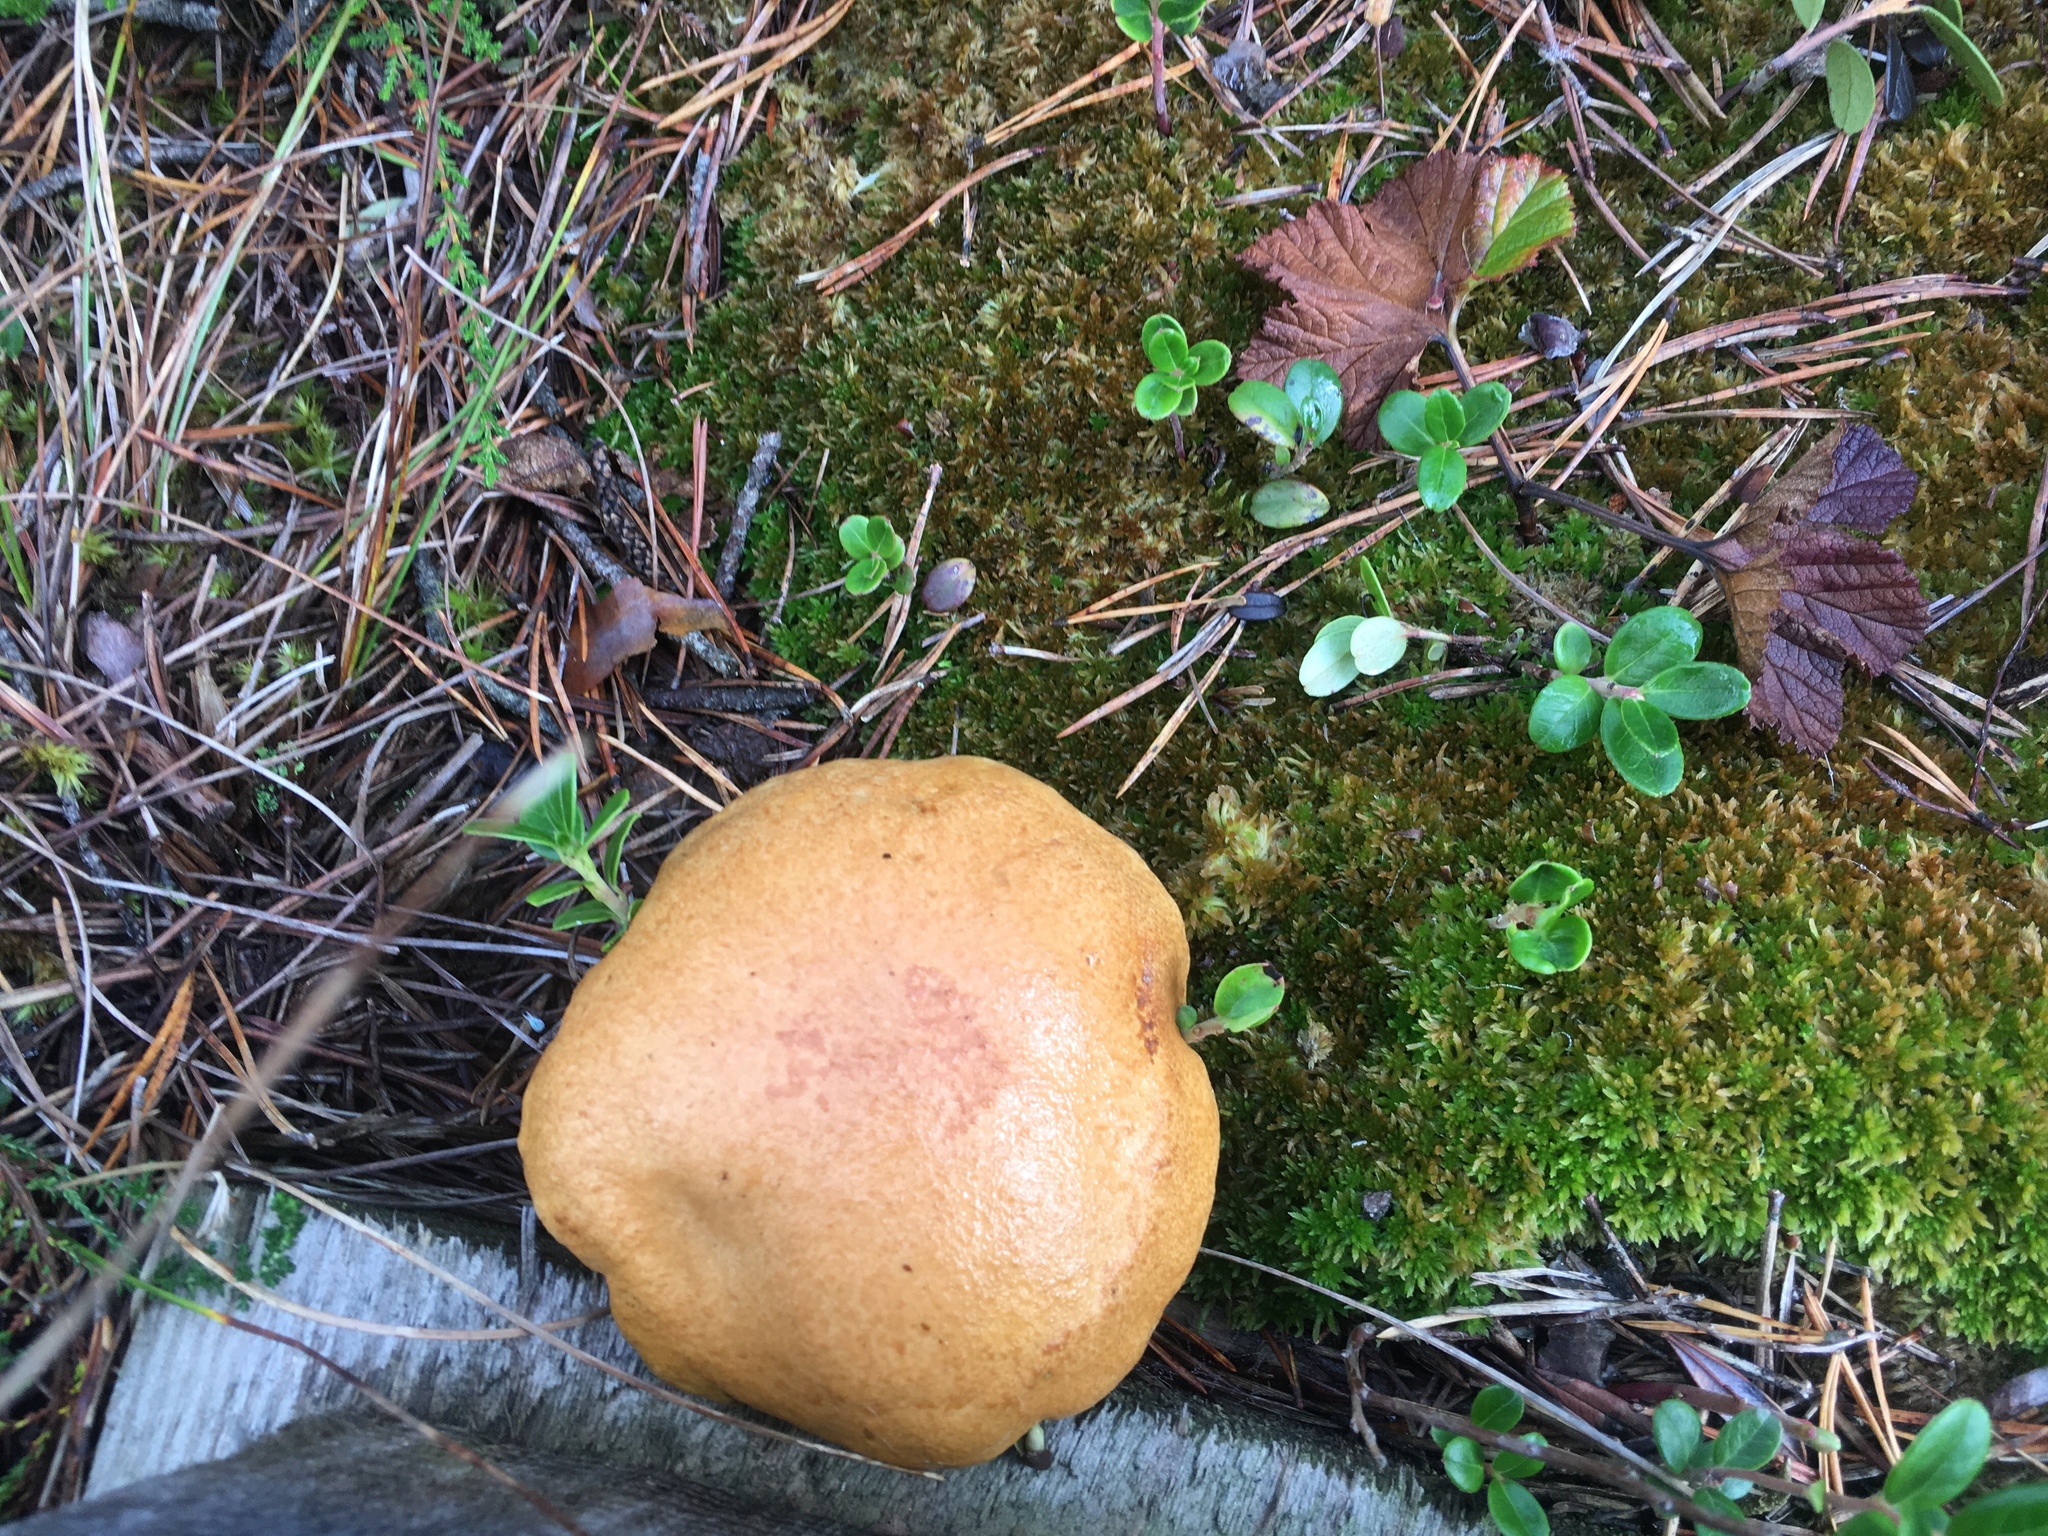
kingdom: Fungi
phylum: Basidiomycota
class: Agaricomycetes
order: Boletales
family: Suillaceae
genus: Suillus
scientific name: Suillus bovinus
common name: Bovine bolete
